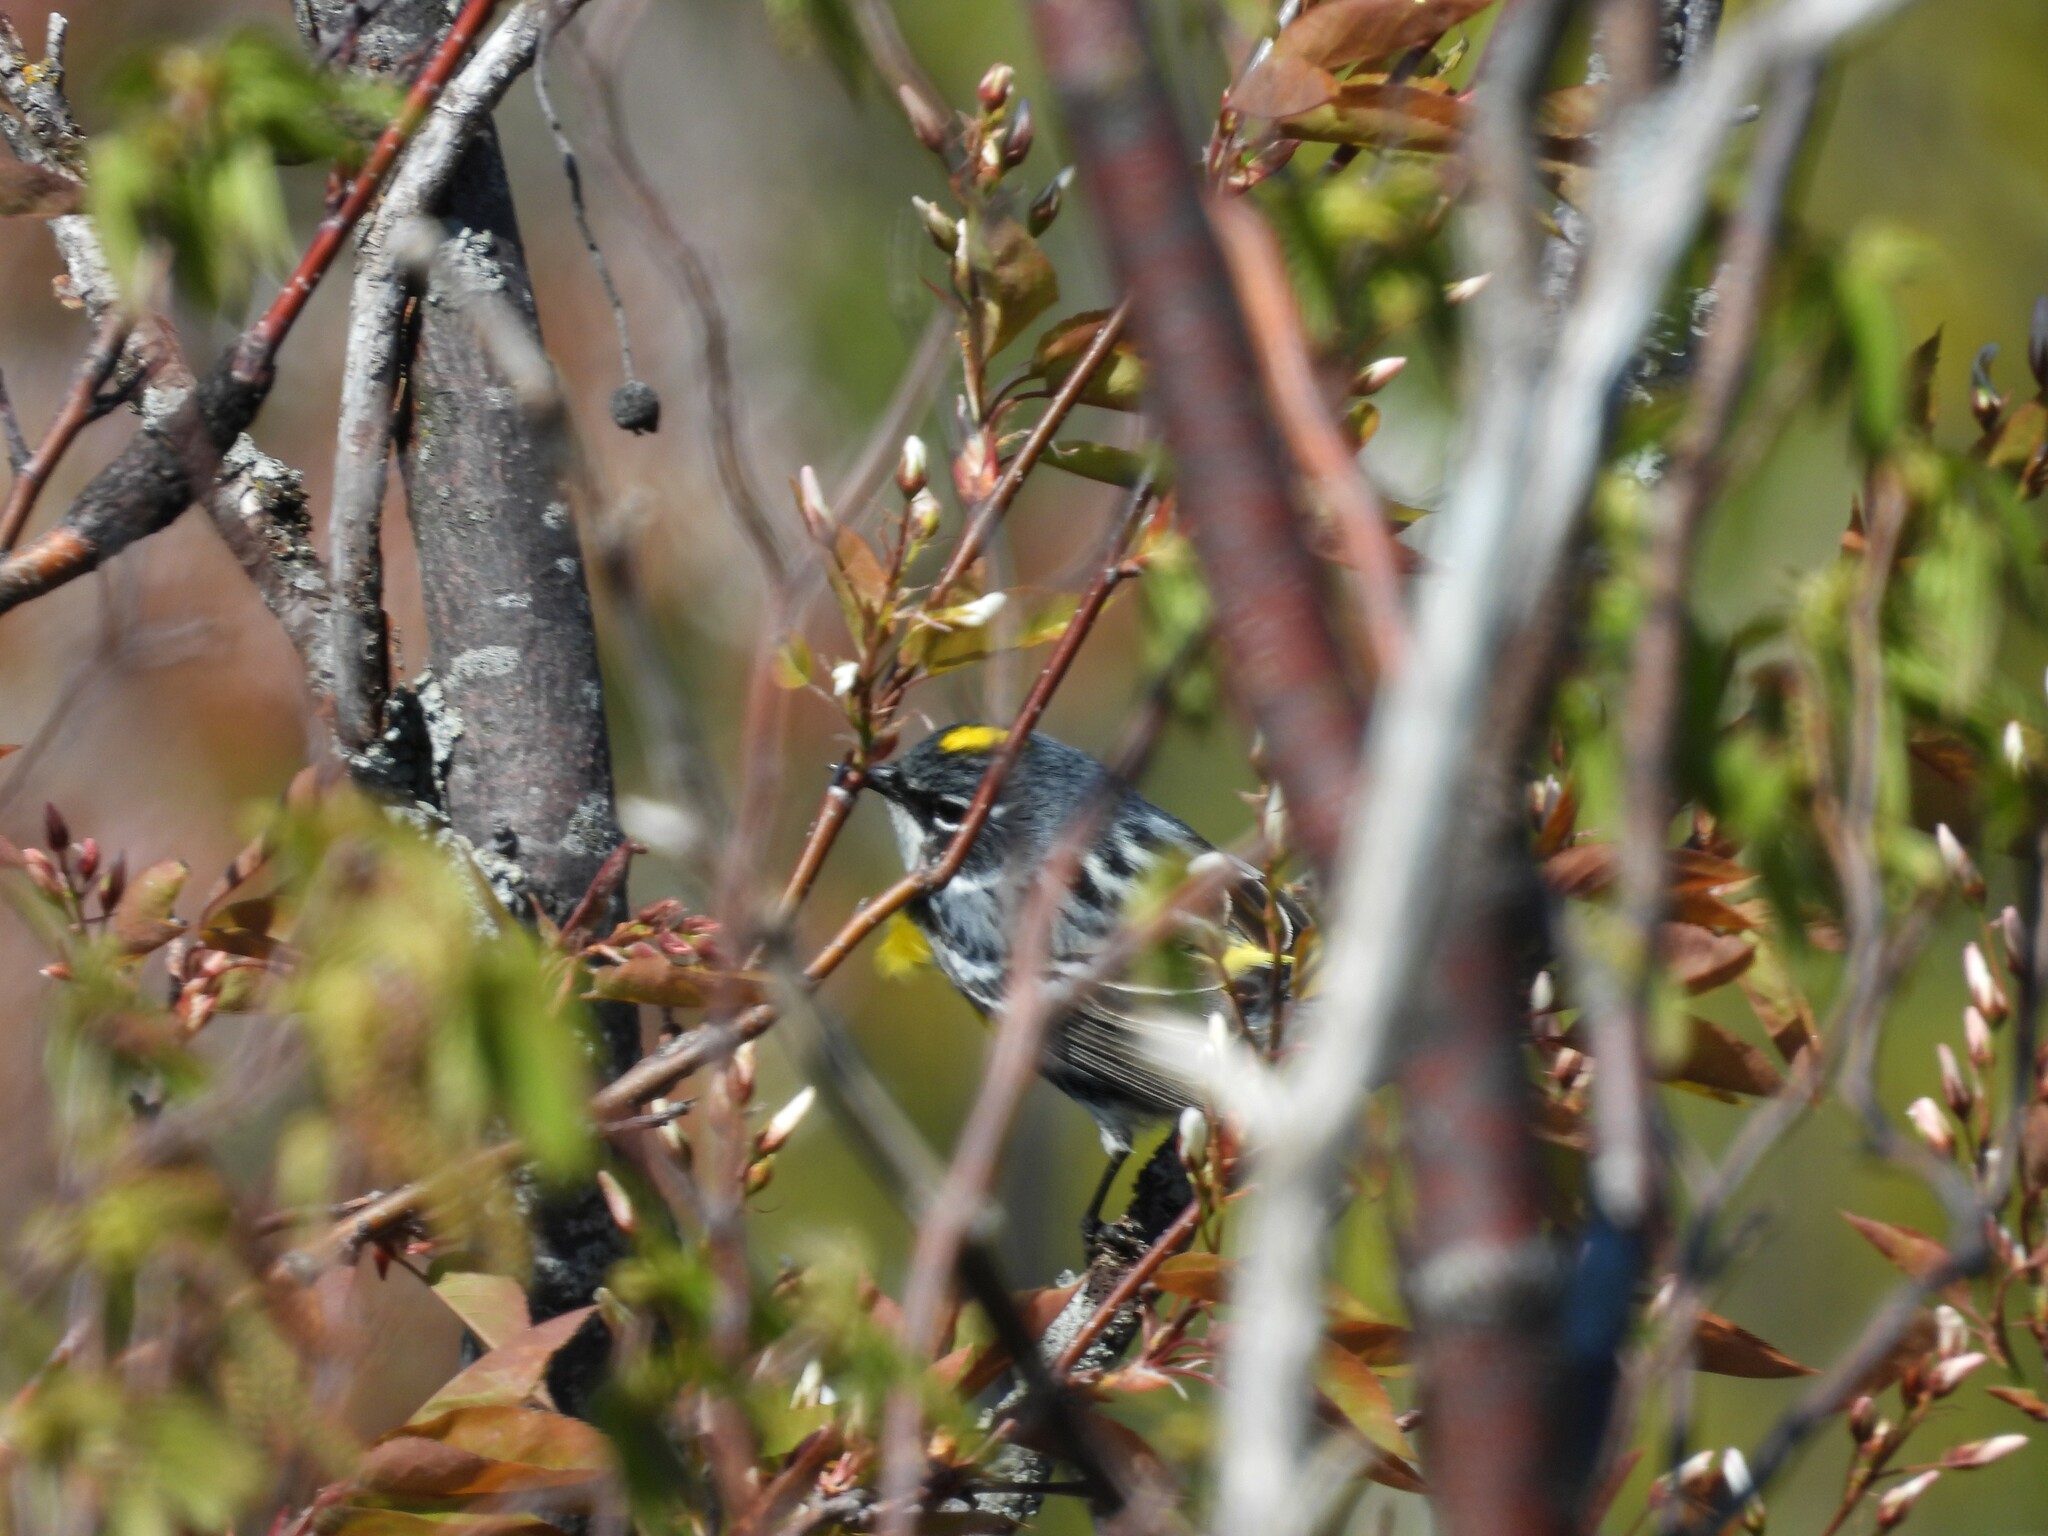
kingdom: Animalia
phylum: Chordata
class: Aves
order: Passeriformes
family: Parulidae
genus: Setophaga
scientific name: Setophaga coronata
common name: Myrtle warbler
